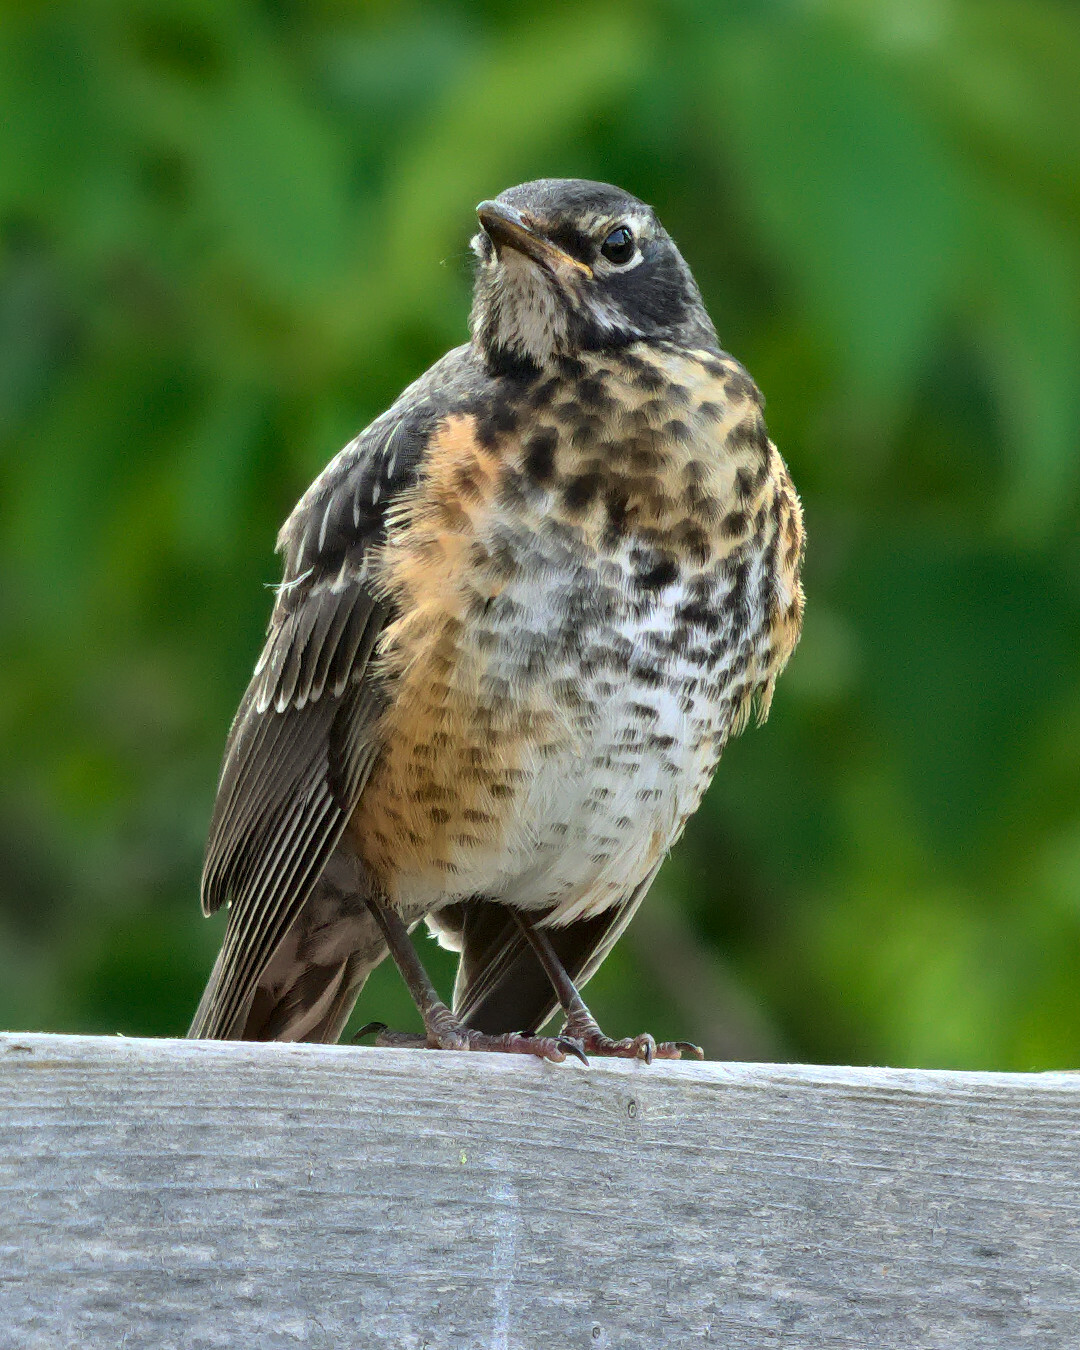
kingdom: Animalia
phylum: Chordata
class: Aves
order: Passeriformes
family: Turdidae
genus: Turdus
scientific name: Turdus migratorius
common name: American robin
